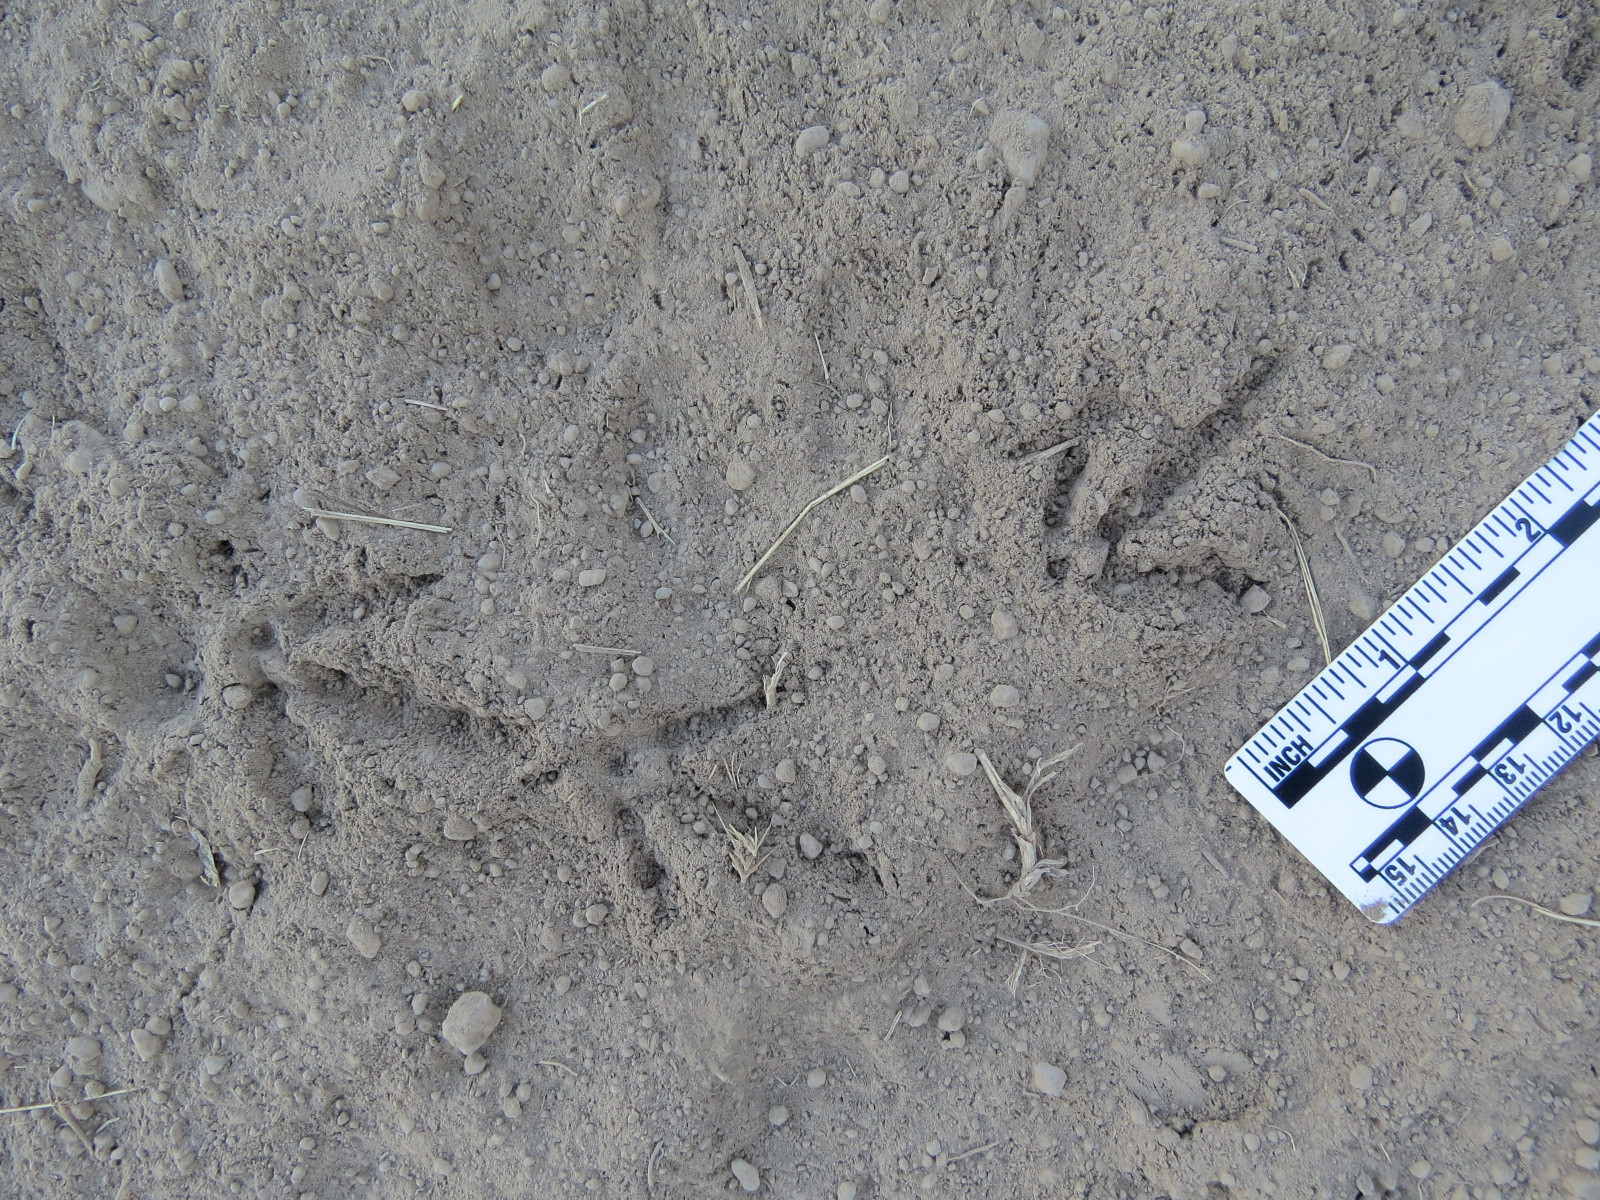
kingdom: Animalia
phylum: Chordata
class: Aves
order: Galliformes
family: Odontophoridae
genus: Callipepla
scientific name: Callipepla californica
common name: California quail
